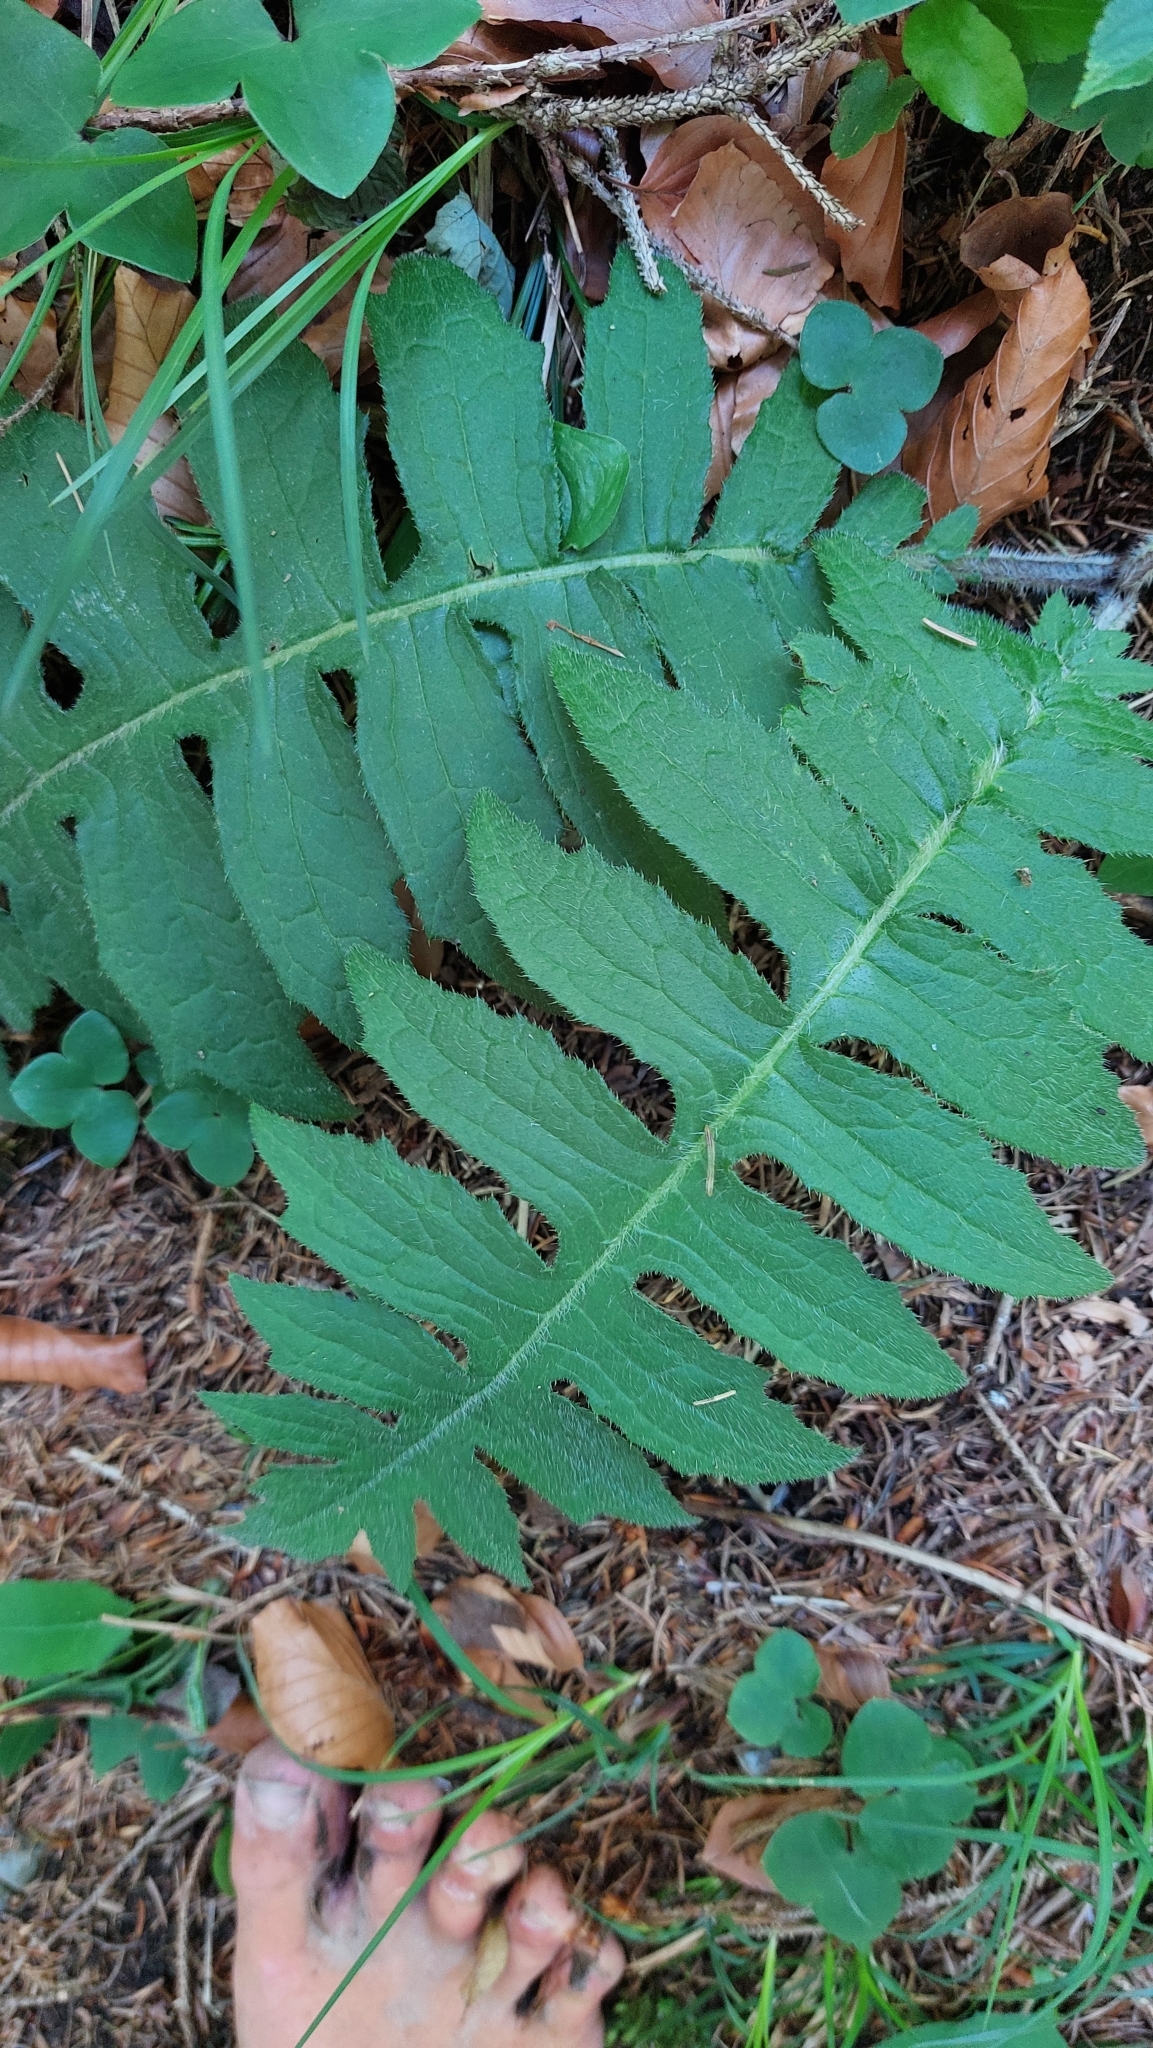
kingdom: Plantae
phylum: Tracheophyta
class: Magnoliopsida
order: Asterales
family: Asteraceae
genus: Cirsium
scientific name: Cirsium erisithales
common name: Yellow thistle
